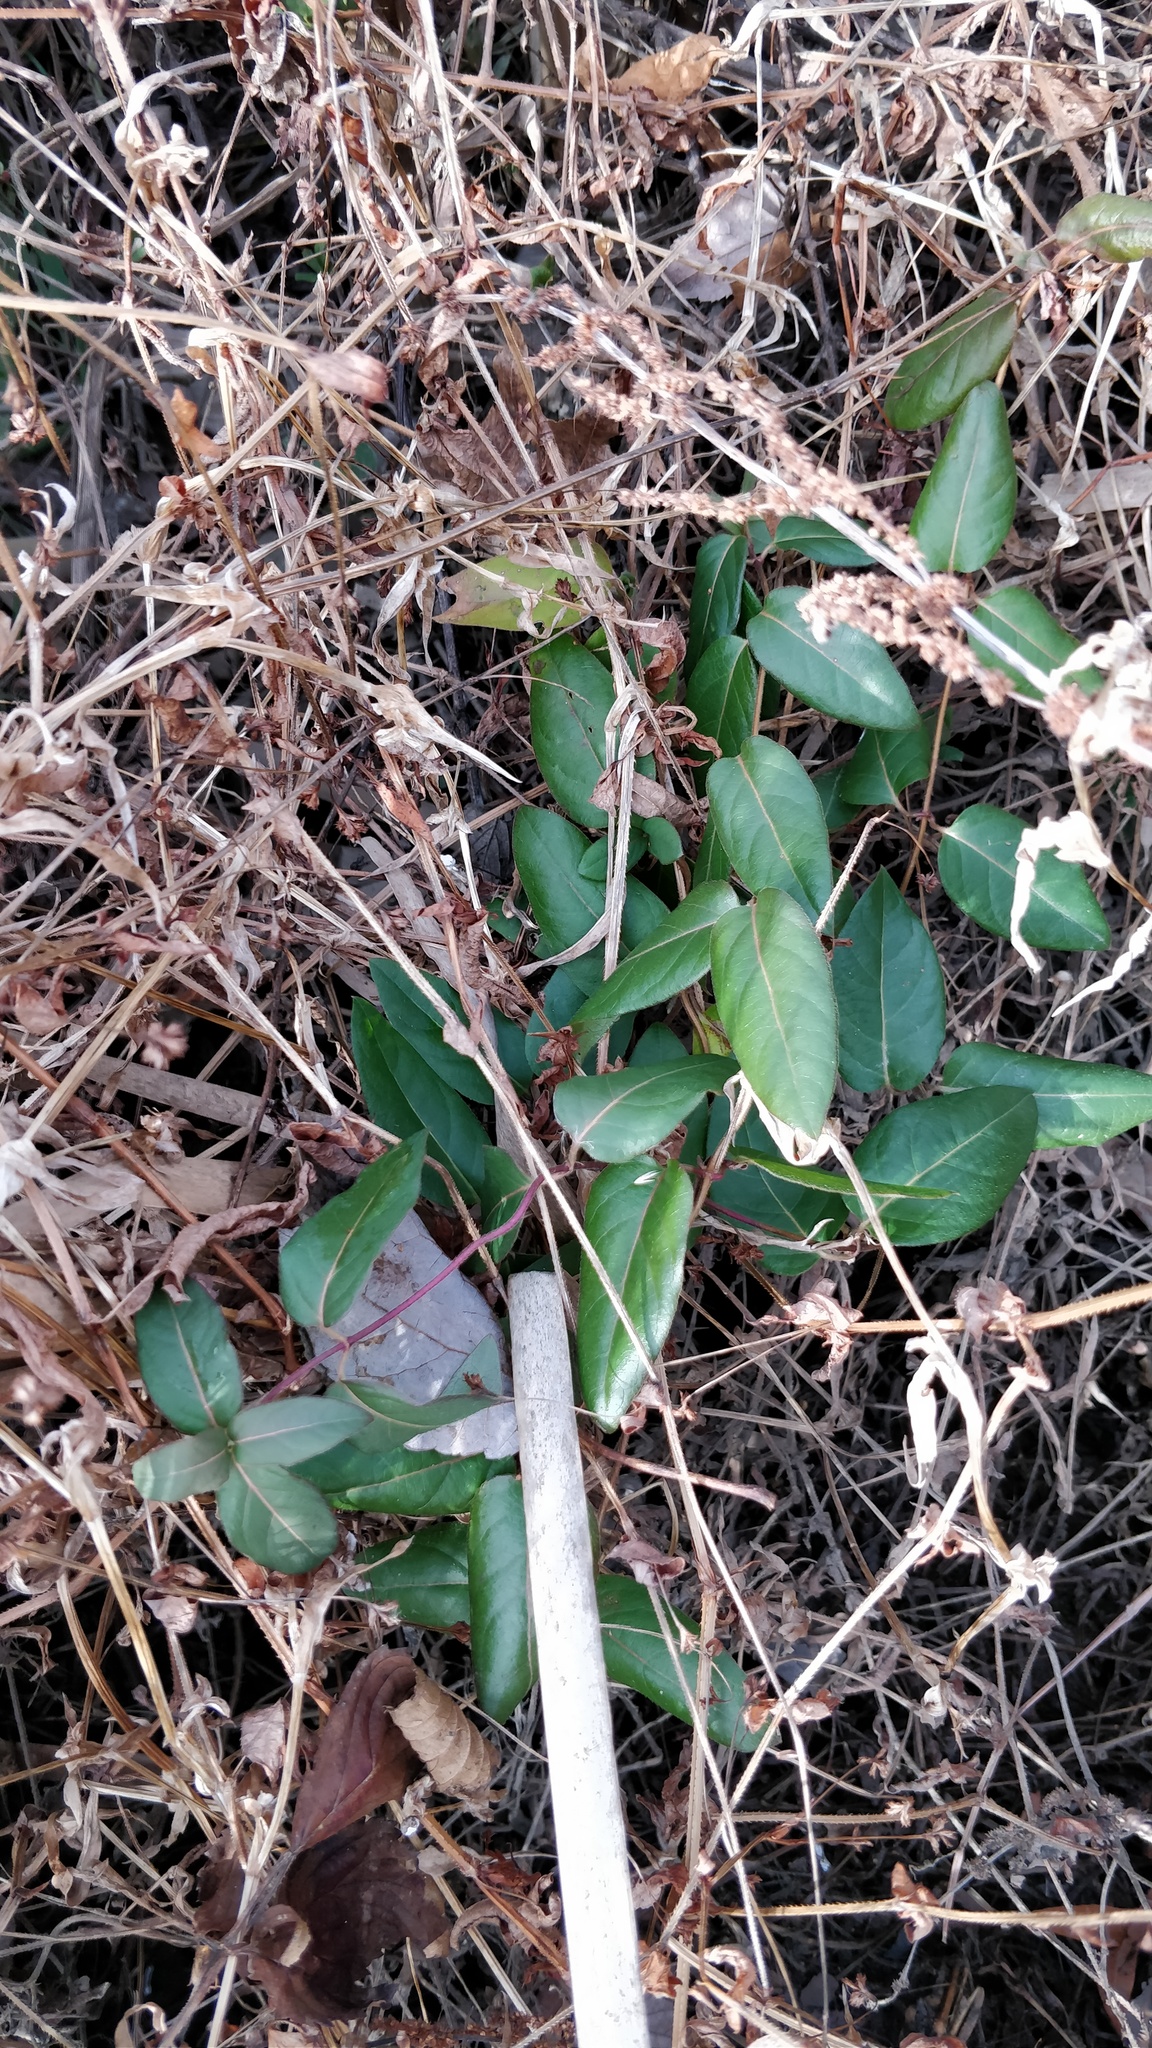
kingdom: Plantae
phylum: Tracheophyta
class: Magnoliopsida
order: Dipsacales
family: Caprifoliaceae
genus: Lonicera
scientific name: Lonicera japonica
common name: Japanese honeysuckle
